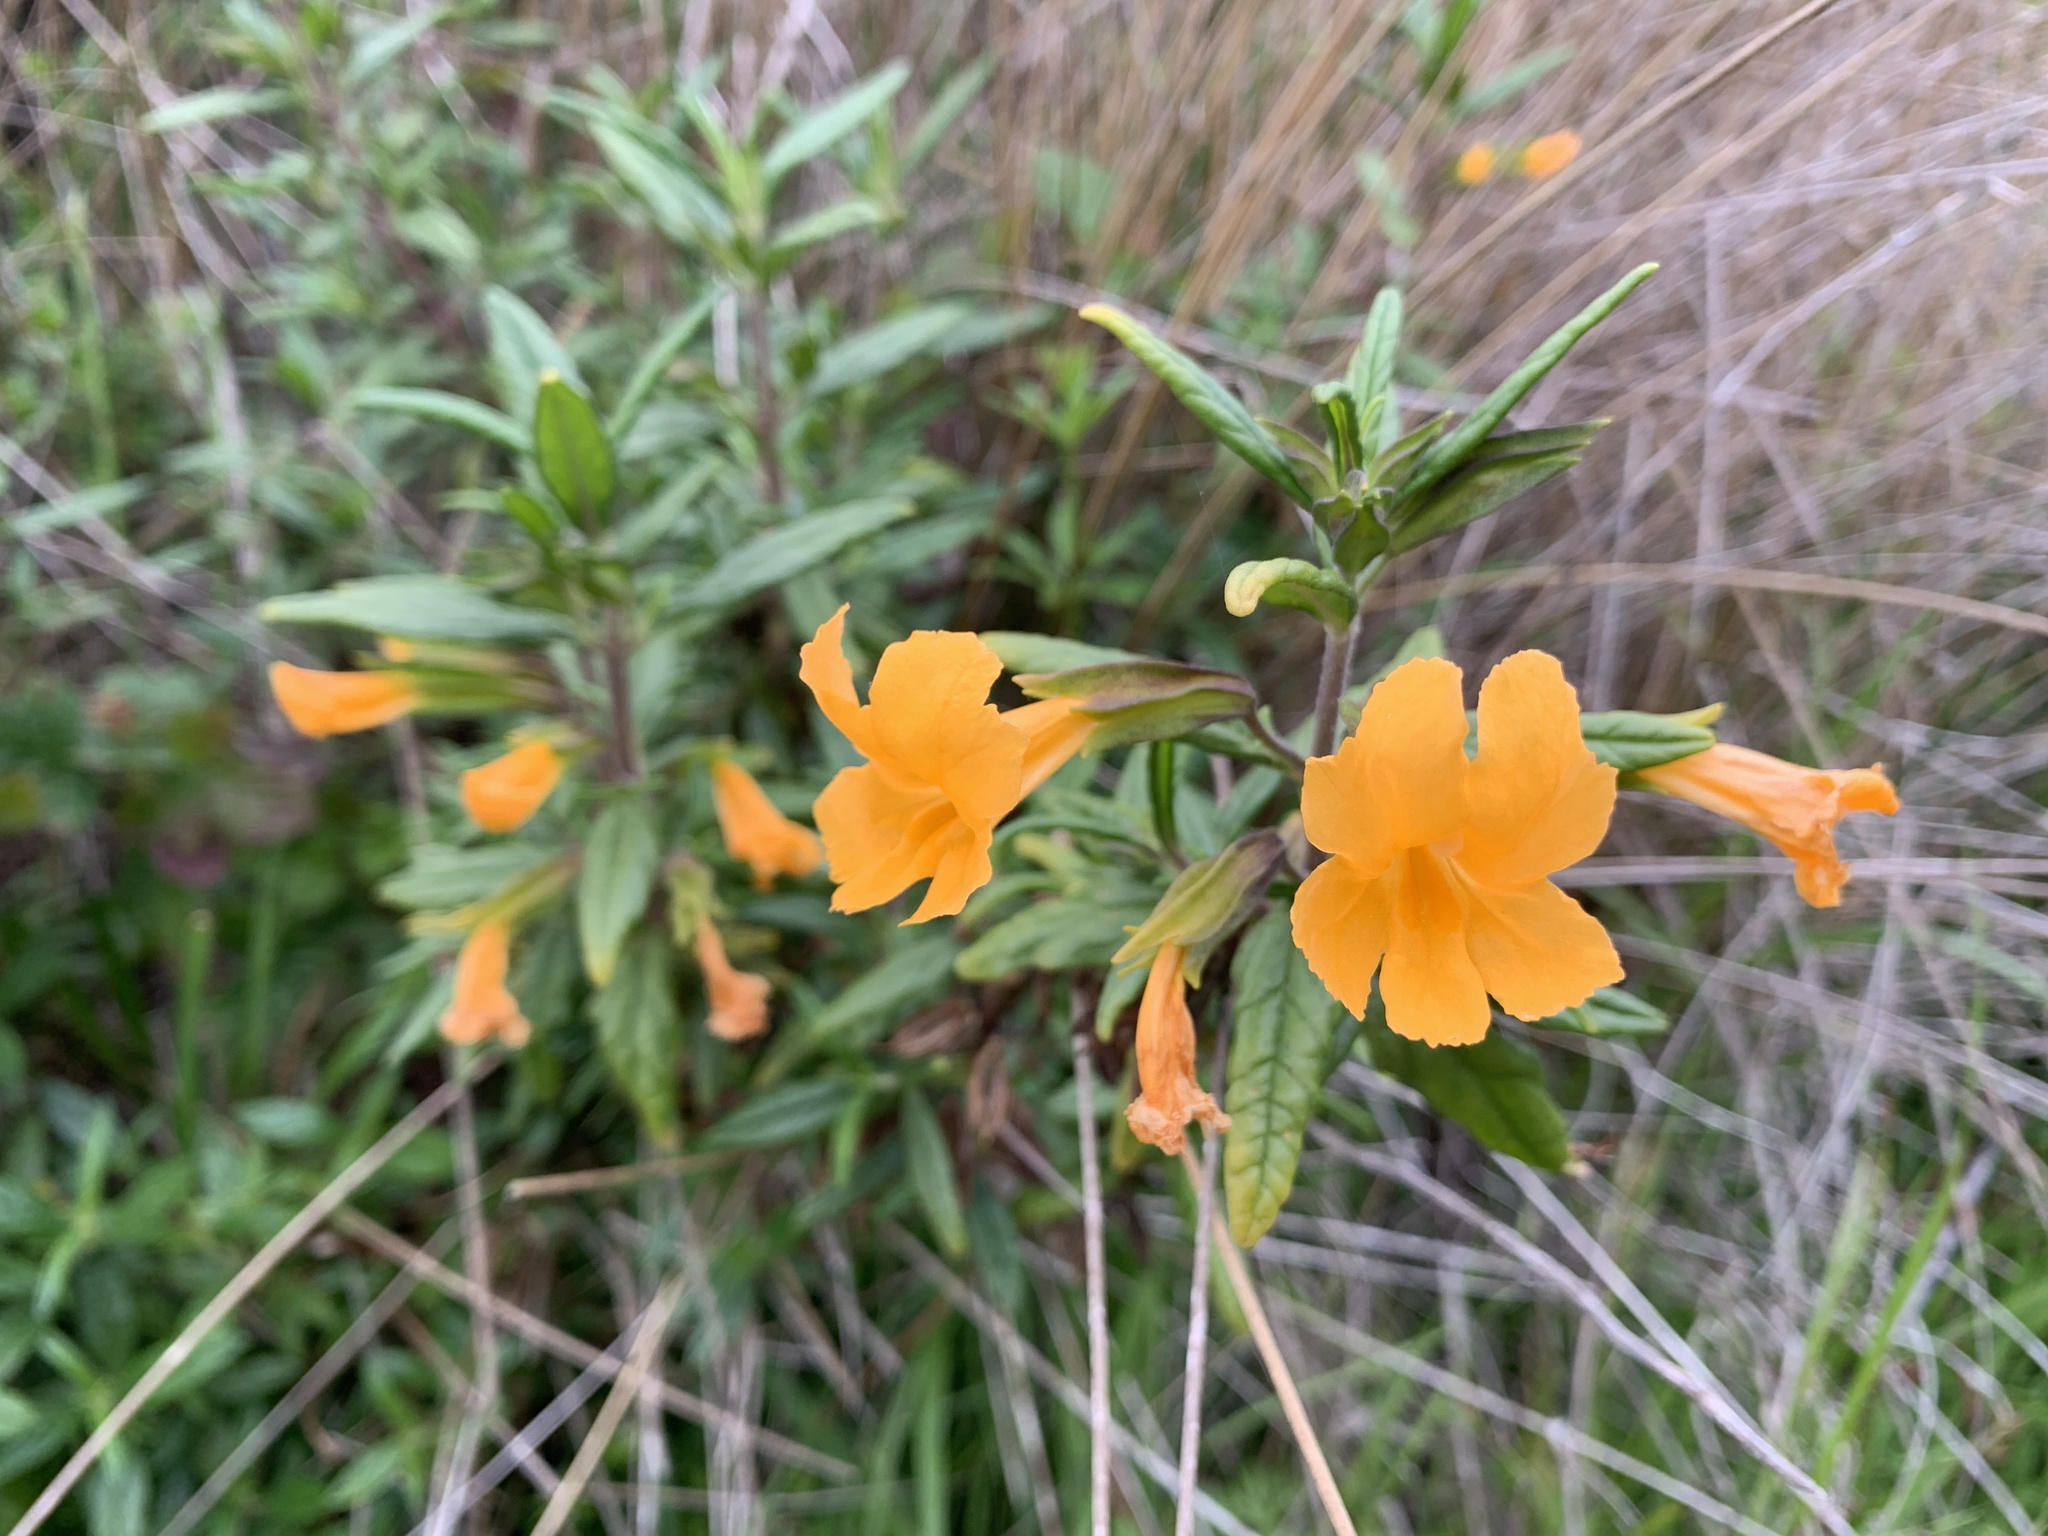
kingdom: Plantae
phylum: Tracheophyta
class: Magnoliopsida
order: Lamiales
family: Phrymaceae
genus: Diplacus
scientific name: Diplacus aurantiacus
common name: Bush monkey-flower
